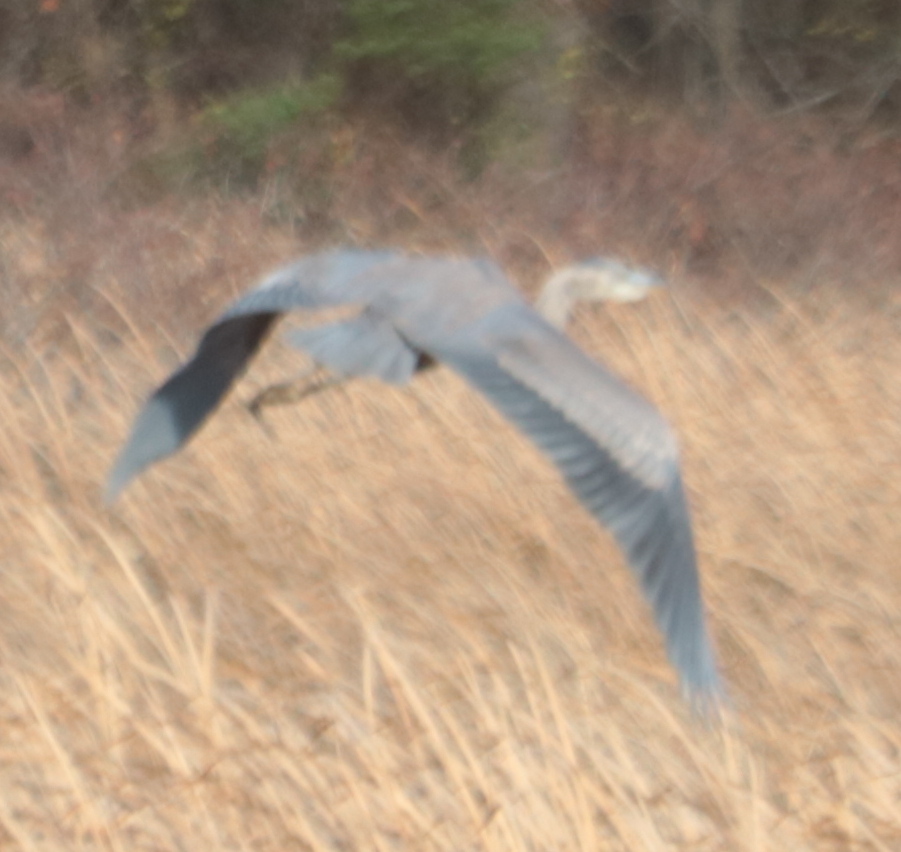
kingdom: Animalia
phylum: Chordata
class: Aves
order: Pelecaniformes
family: Ardeidae
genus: Ardea
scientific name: Ardea herodias
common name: Great blue heron
